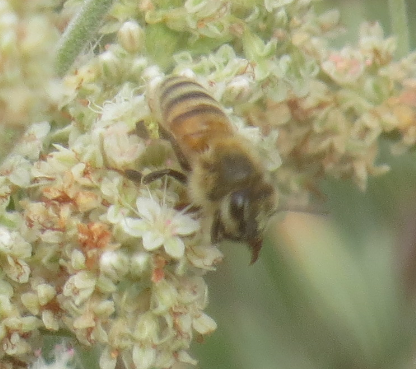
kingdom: Animalia
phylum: Arthropoda
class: Insecta
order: Hymenoptera
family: Apidae
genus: Apis
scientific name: Apis mellifera
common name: Honey bee
